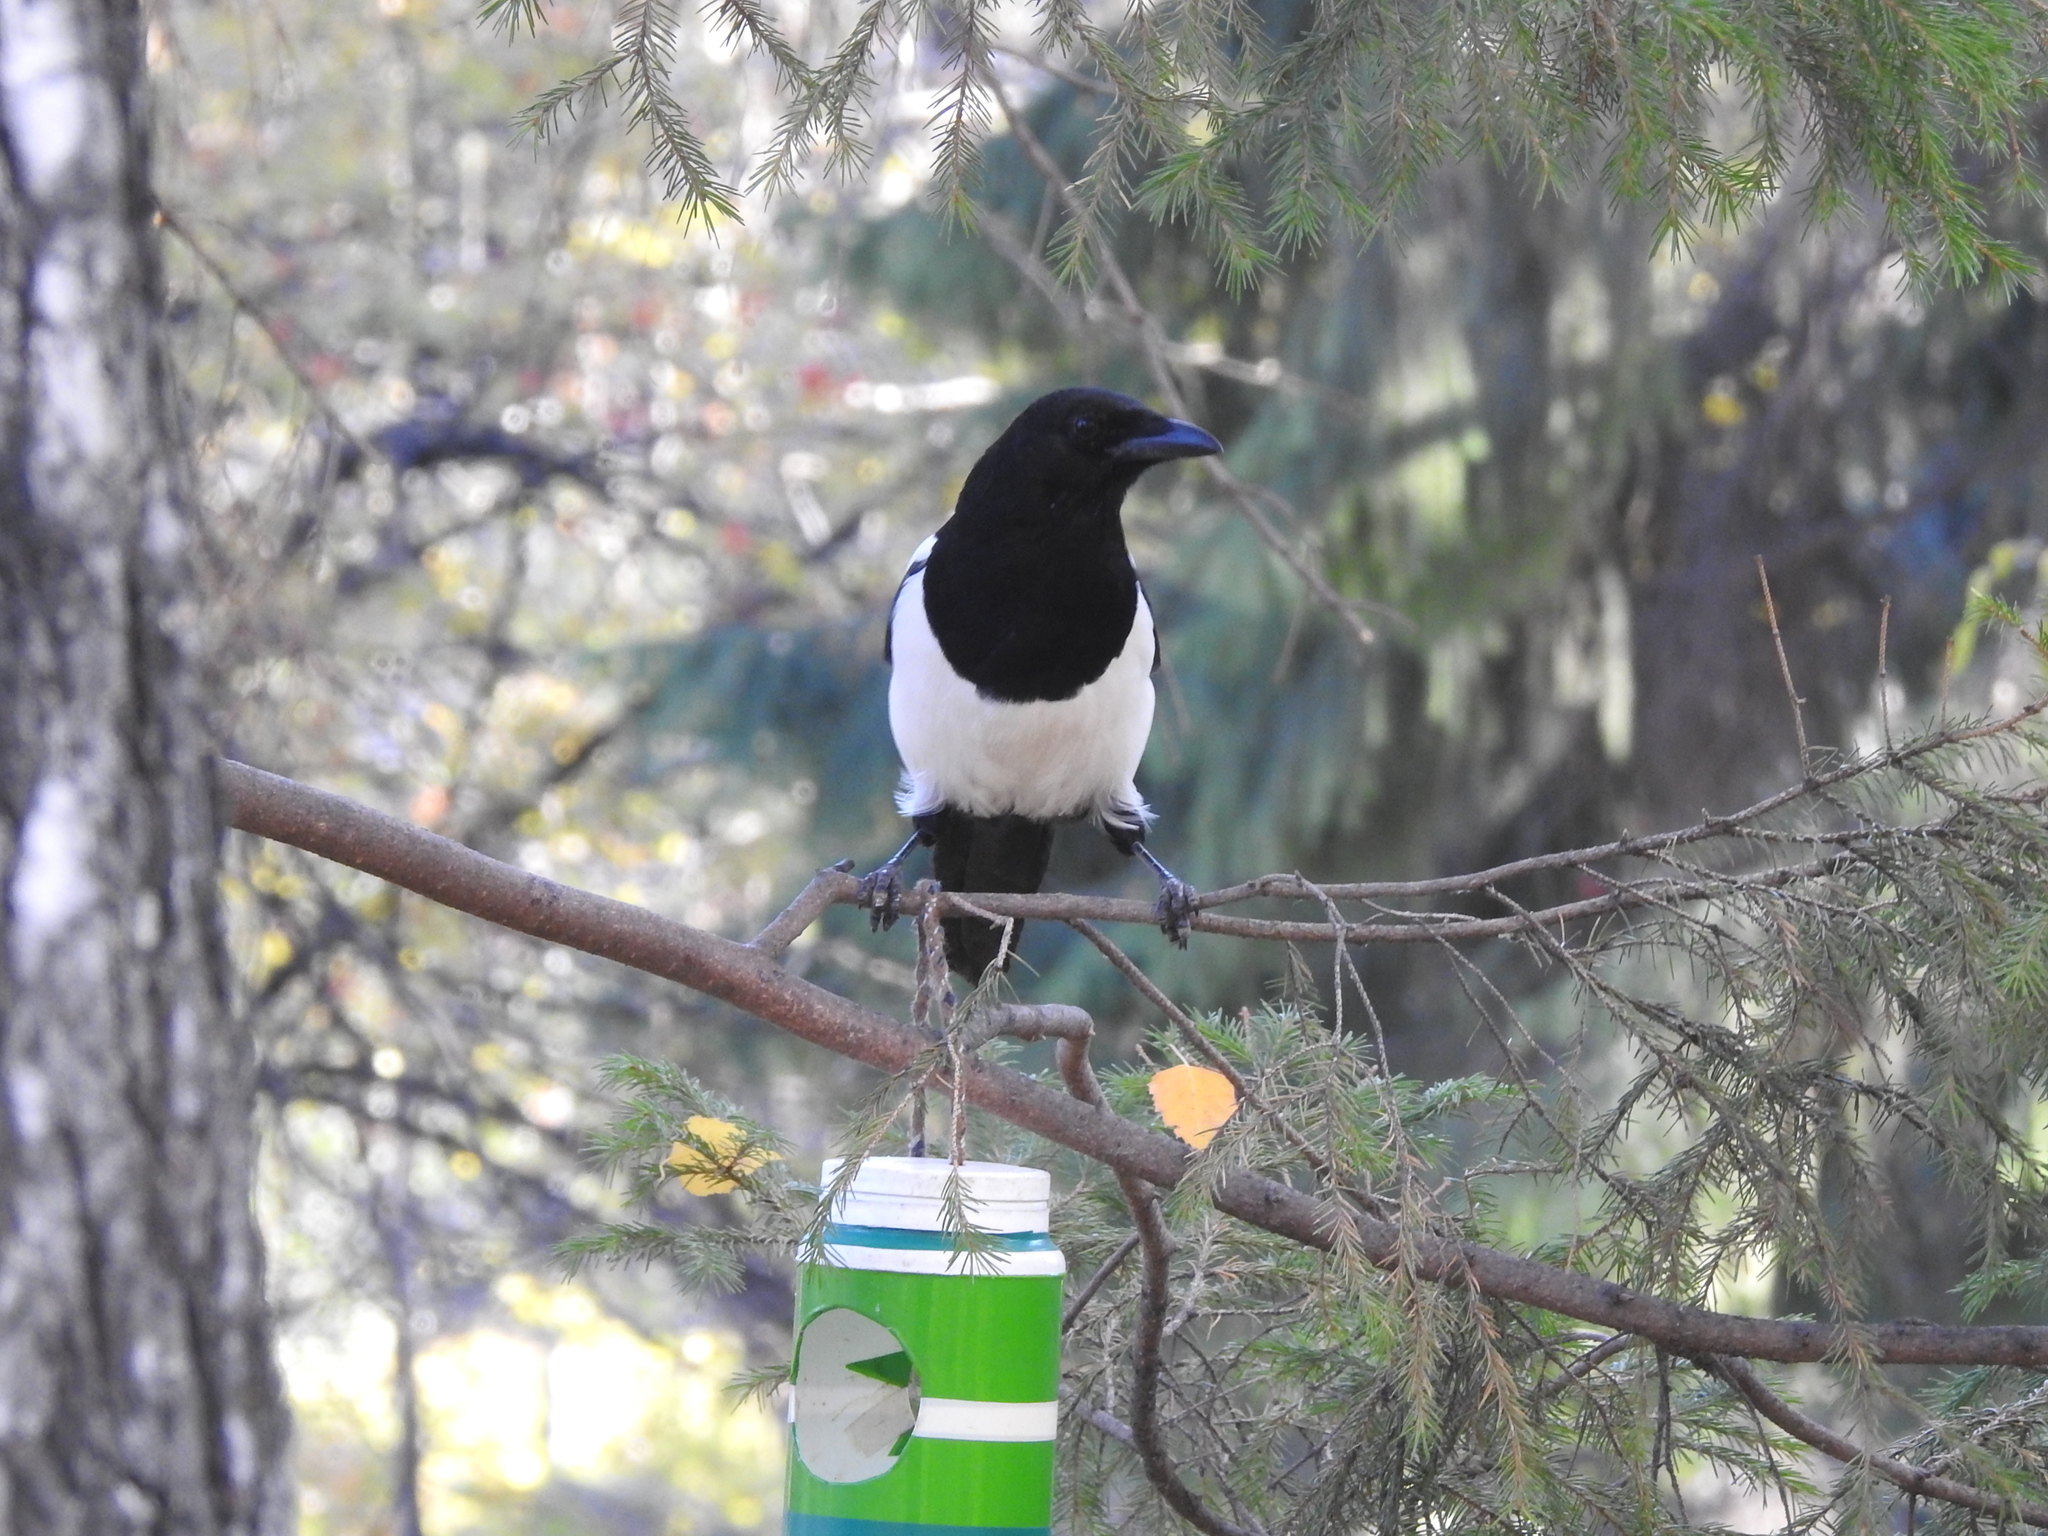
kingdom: Animalia
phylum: Chordata
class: Aves
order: Passeriformes
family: Corvidae
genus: Pica
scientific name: Pica pica
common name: Eurasian magpie
